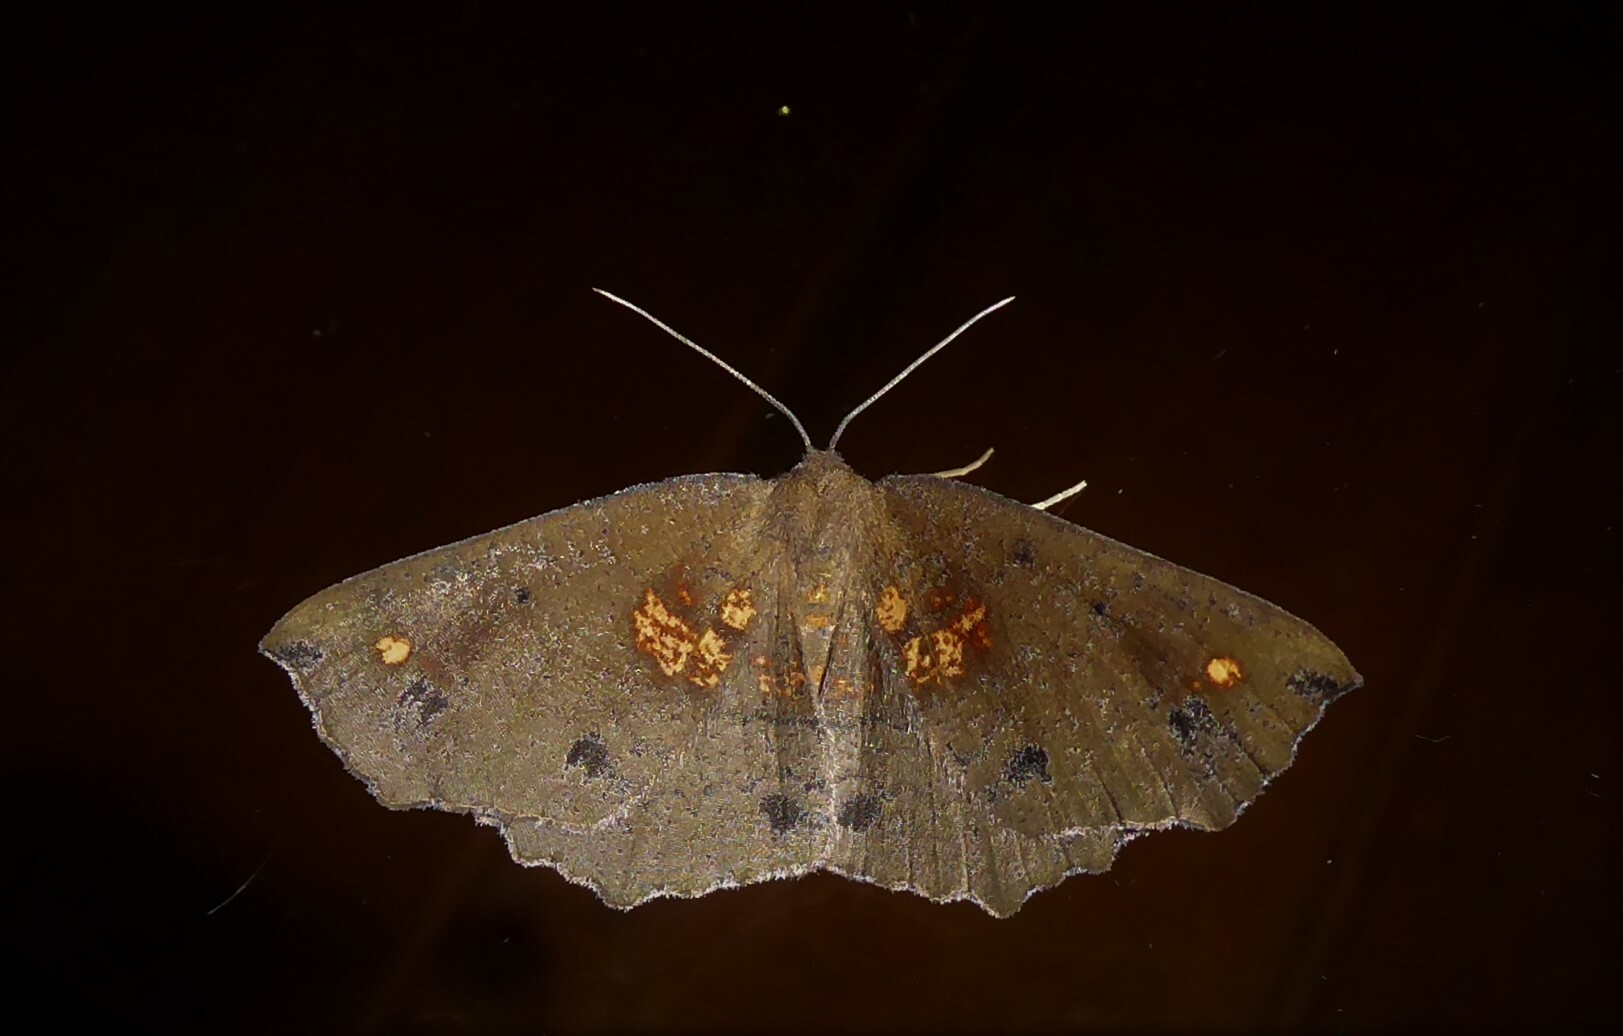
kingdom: Animalia
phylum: Arthropoda
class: Insecta
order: Lepidoptera
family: Geometridae
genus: Xyridacma
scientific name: Xyridacma ustaria
